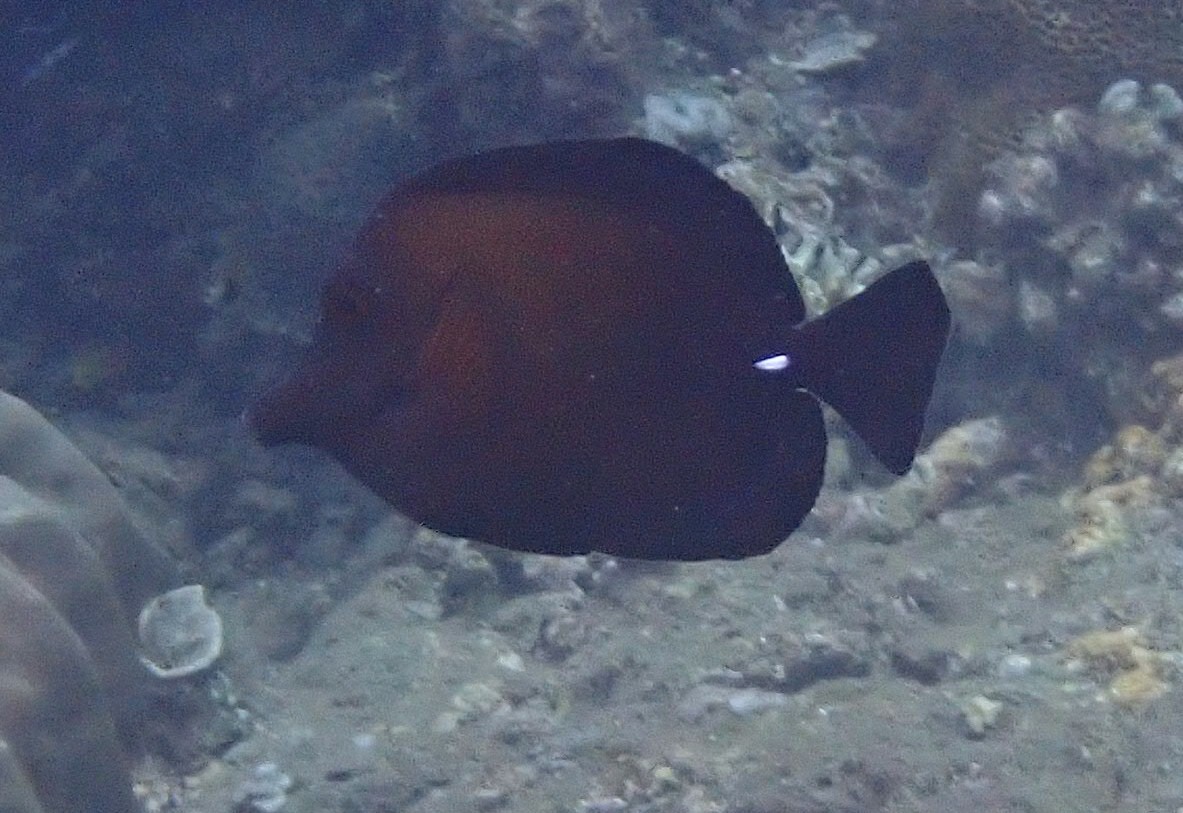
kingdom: Animalia
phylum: Chordata
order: Perciformes
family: Acanthuridae
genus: Zebrasoma
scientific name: Zebrasoma scopas
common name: Twotone tang
